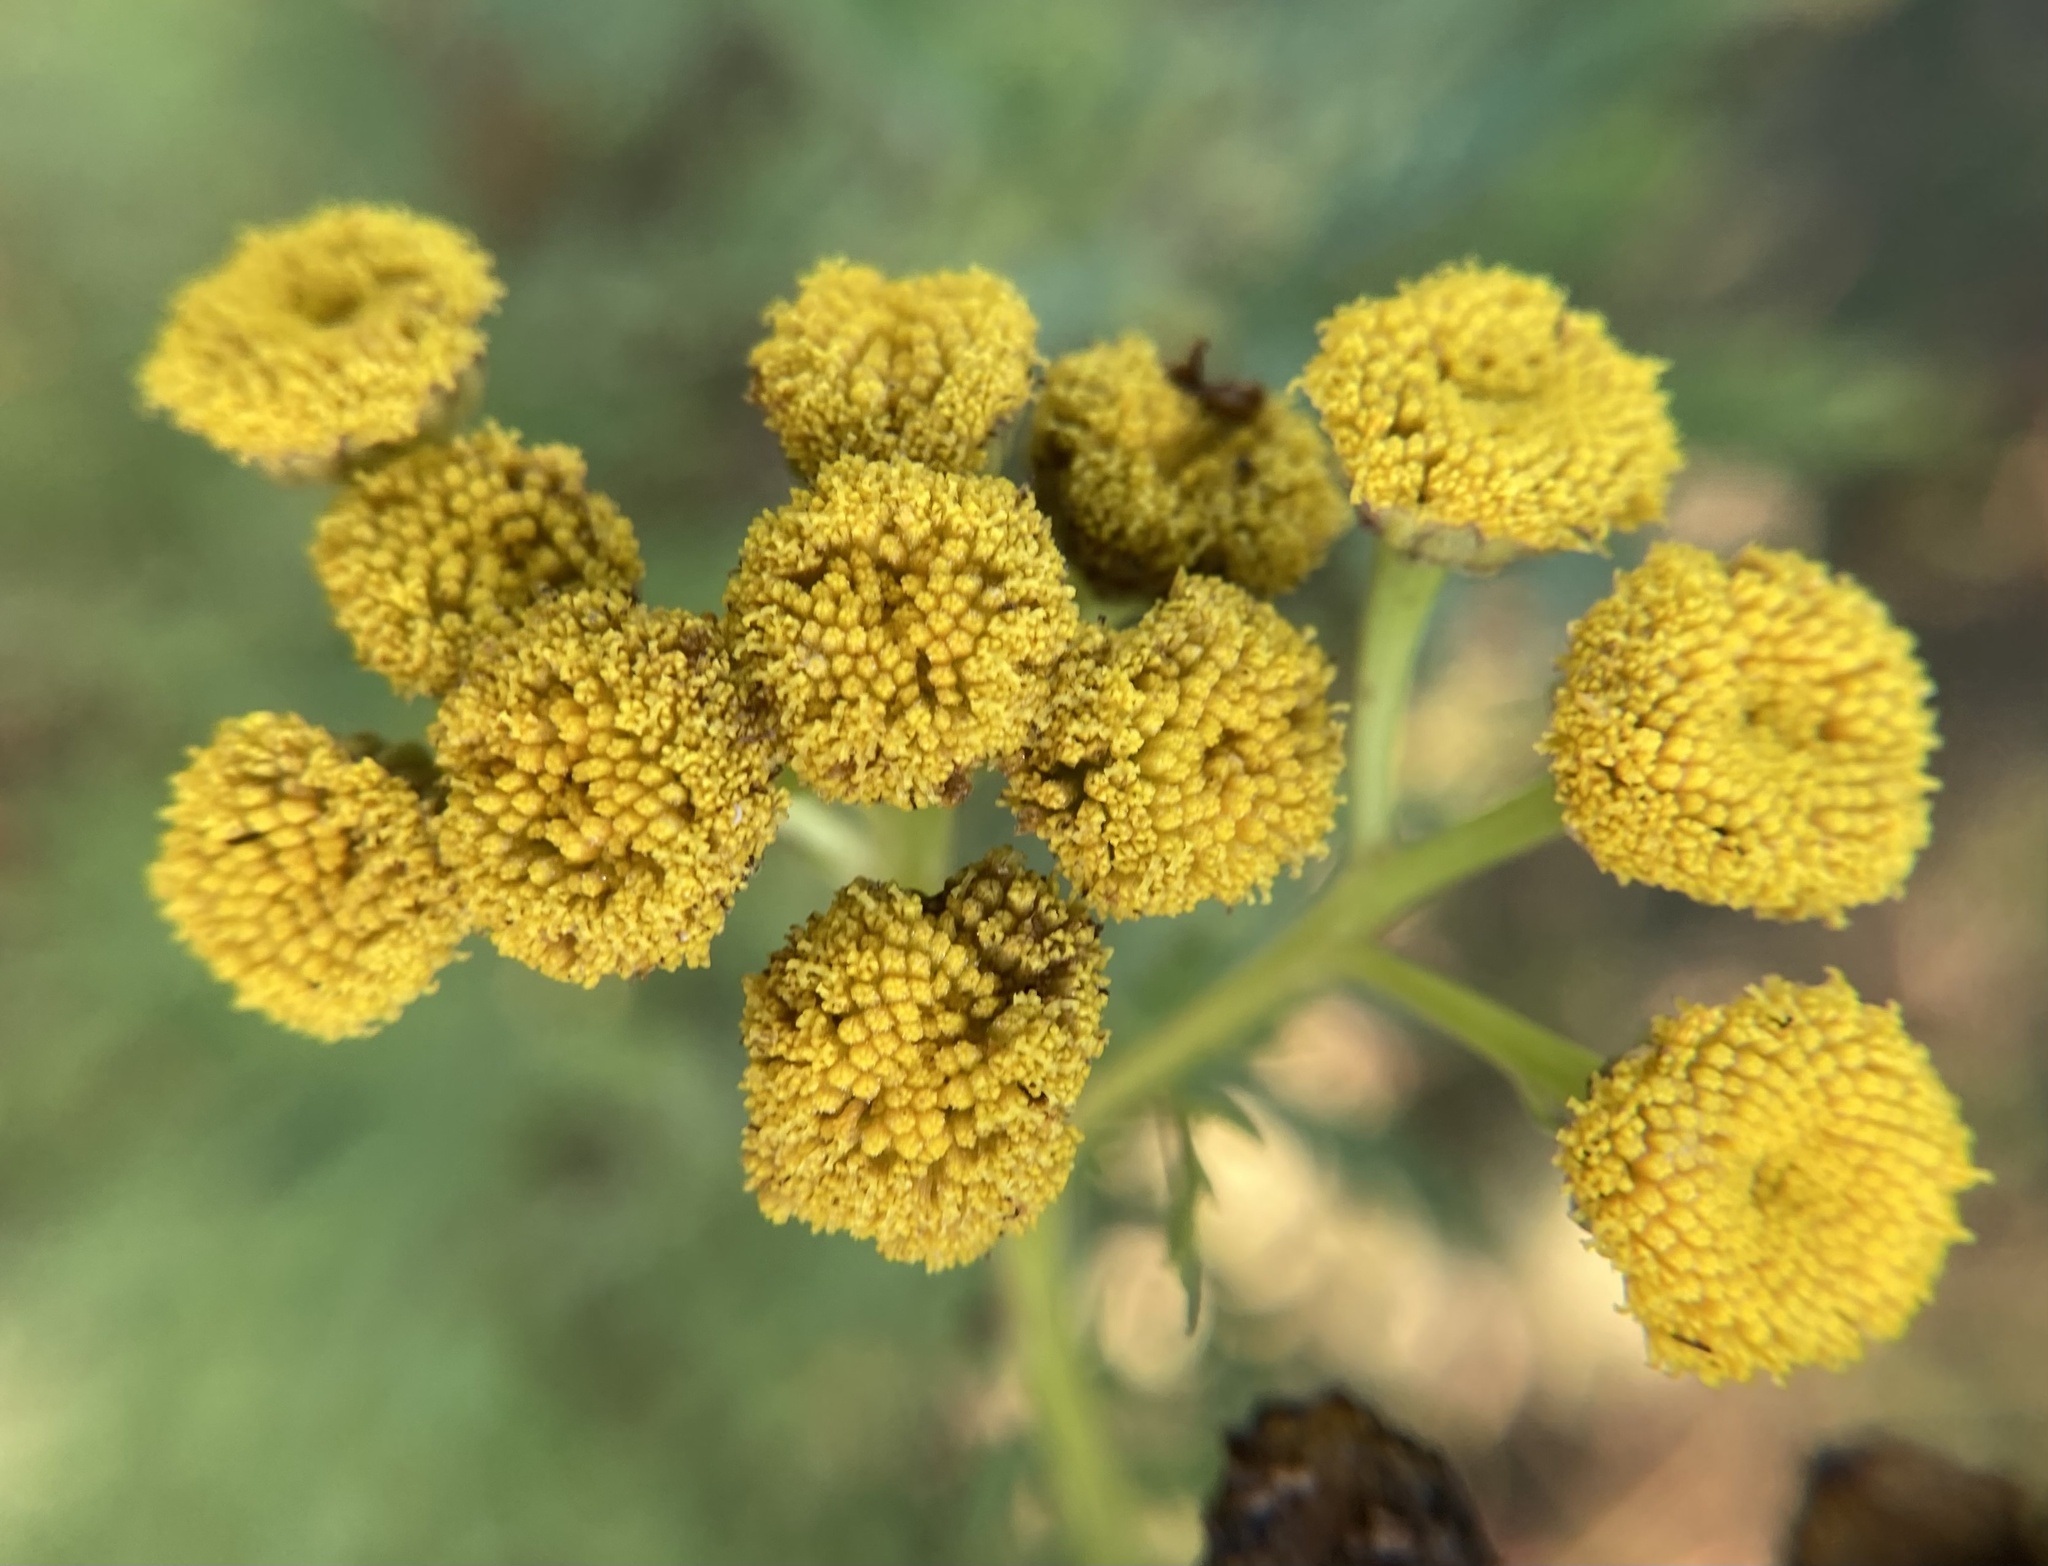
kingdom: Plantae
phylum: Tracheophyta
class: Magnoliopsida
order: Asterales
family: Asteraceae
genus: Tanacetum
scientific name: Tanacetum vulgare
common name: Common tansy
